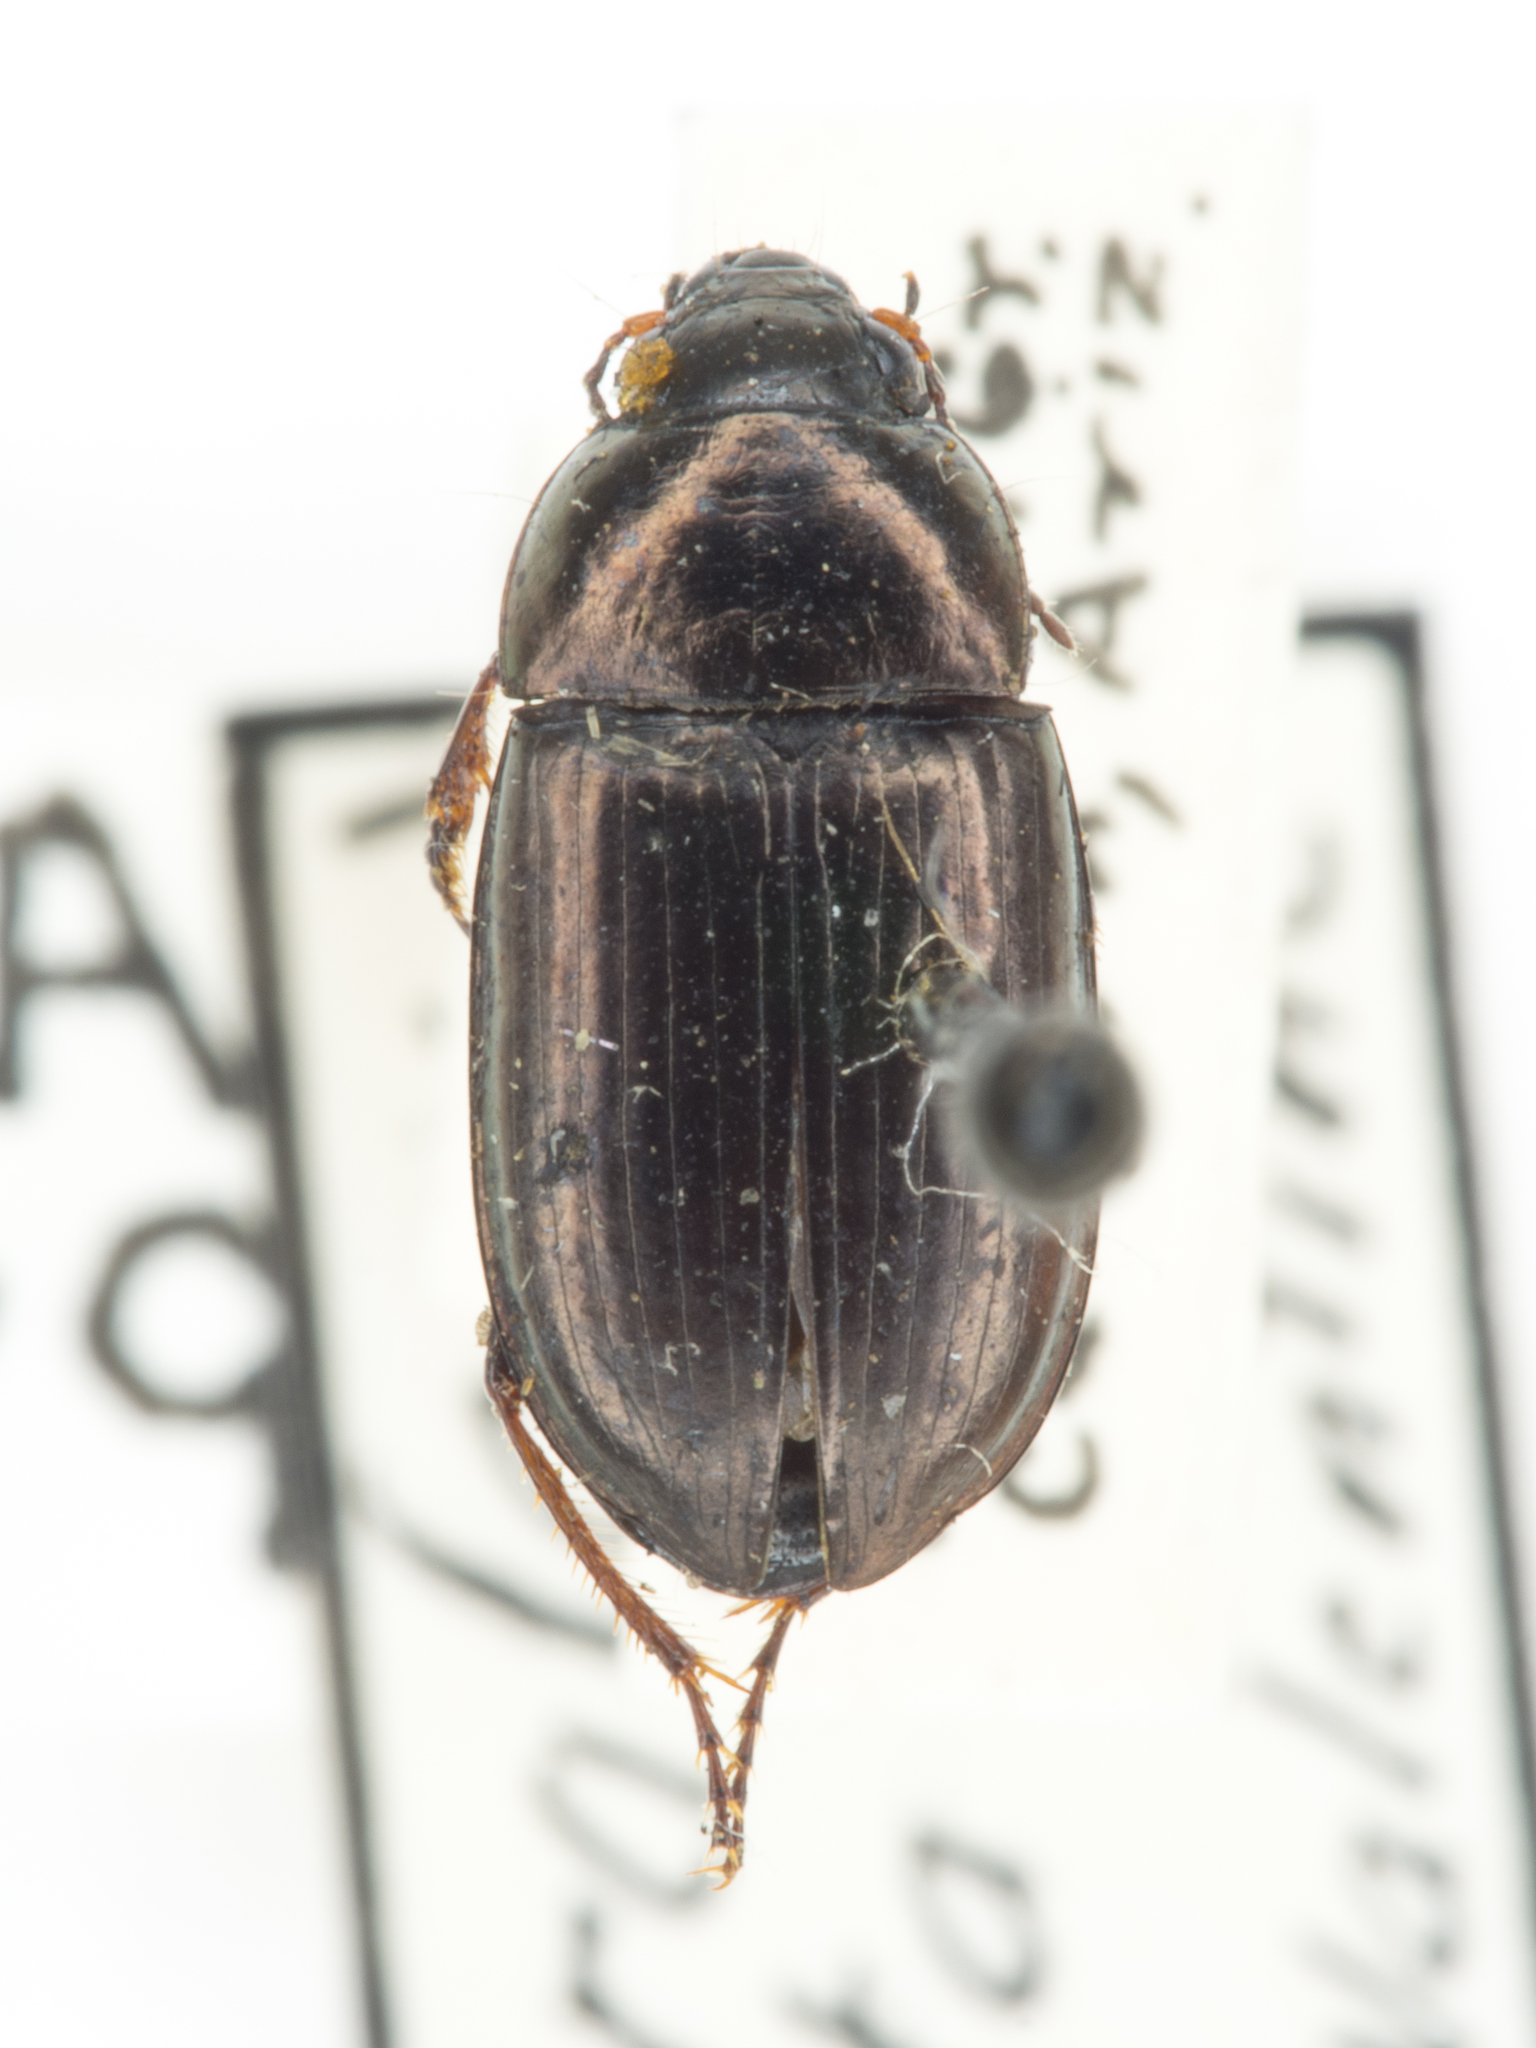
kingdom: Animalia
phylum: Arthropoda
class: Insecta
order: Coleoptera
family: Carabidae
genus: Amara
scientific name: Amara farcta
